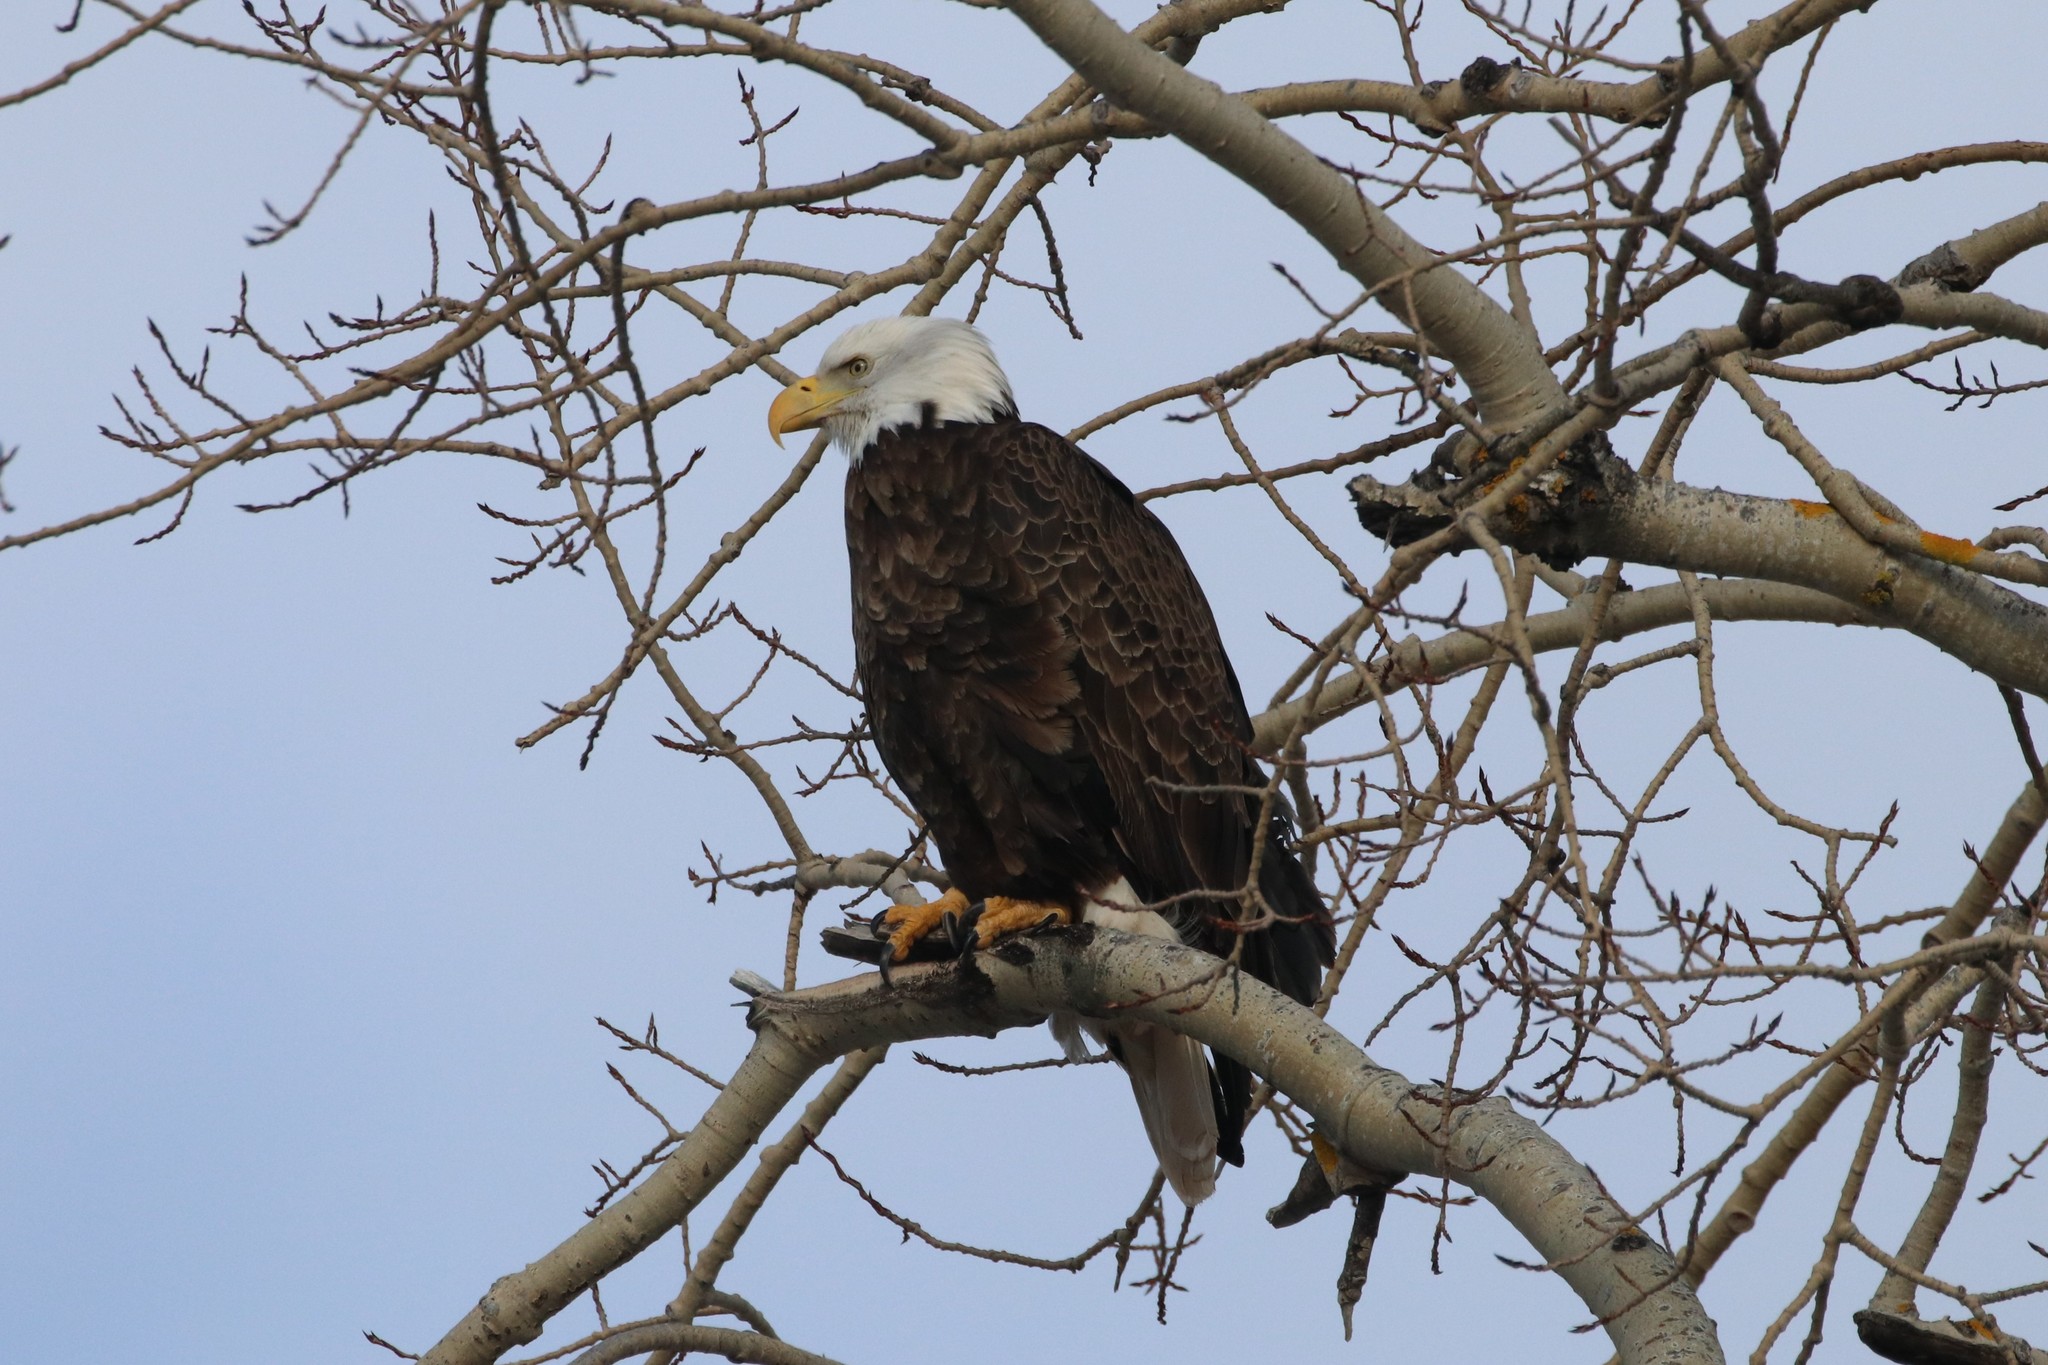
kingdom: Animalia
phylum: Chordata
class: Aves
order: Accipitriformes
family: Accipitridae
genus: Haliaeetus
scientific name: Haliaeetus leucocephalus
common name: Bald eagle
